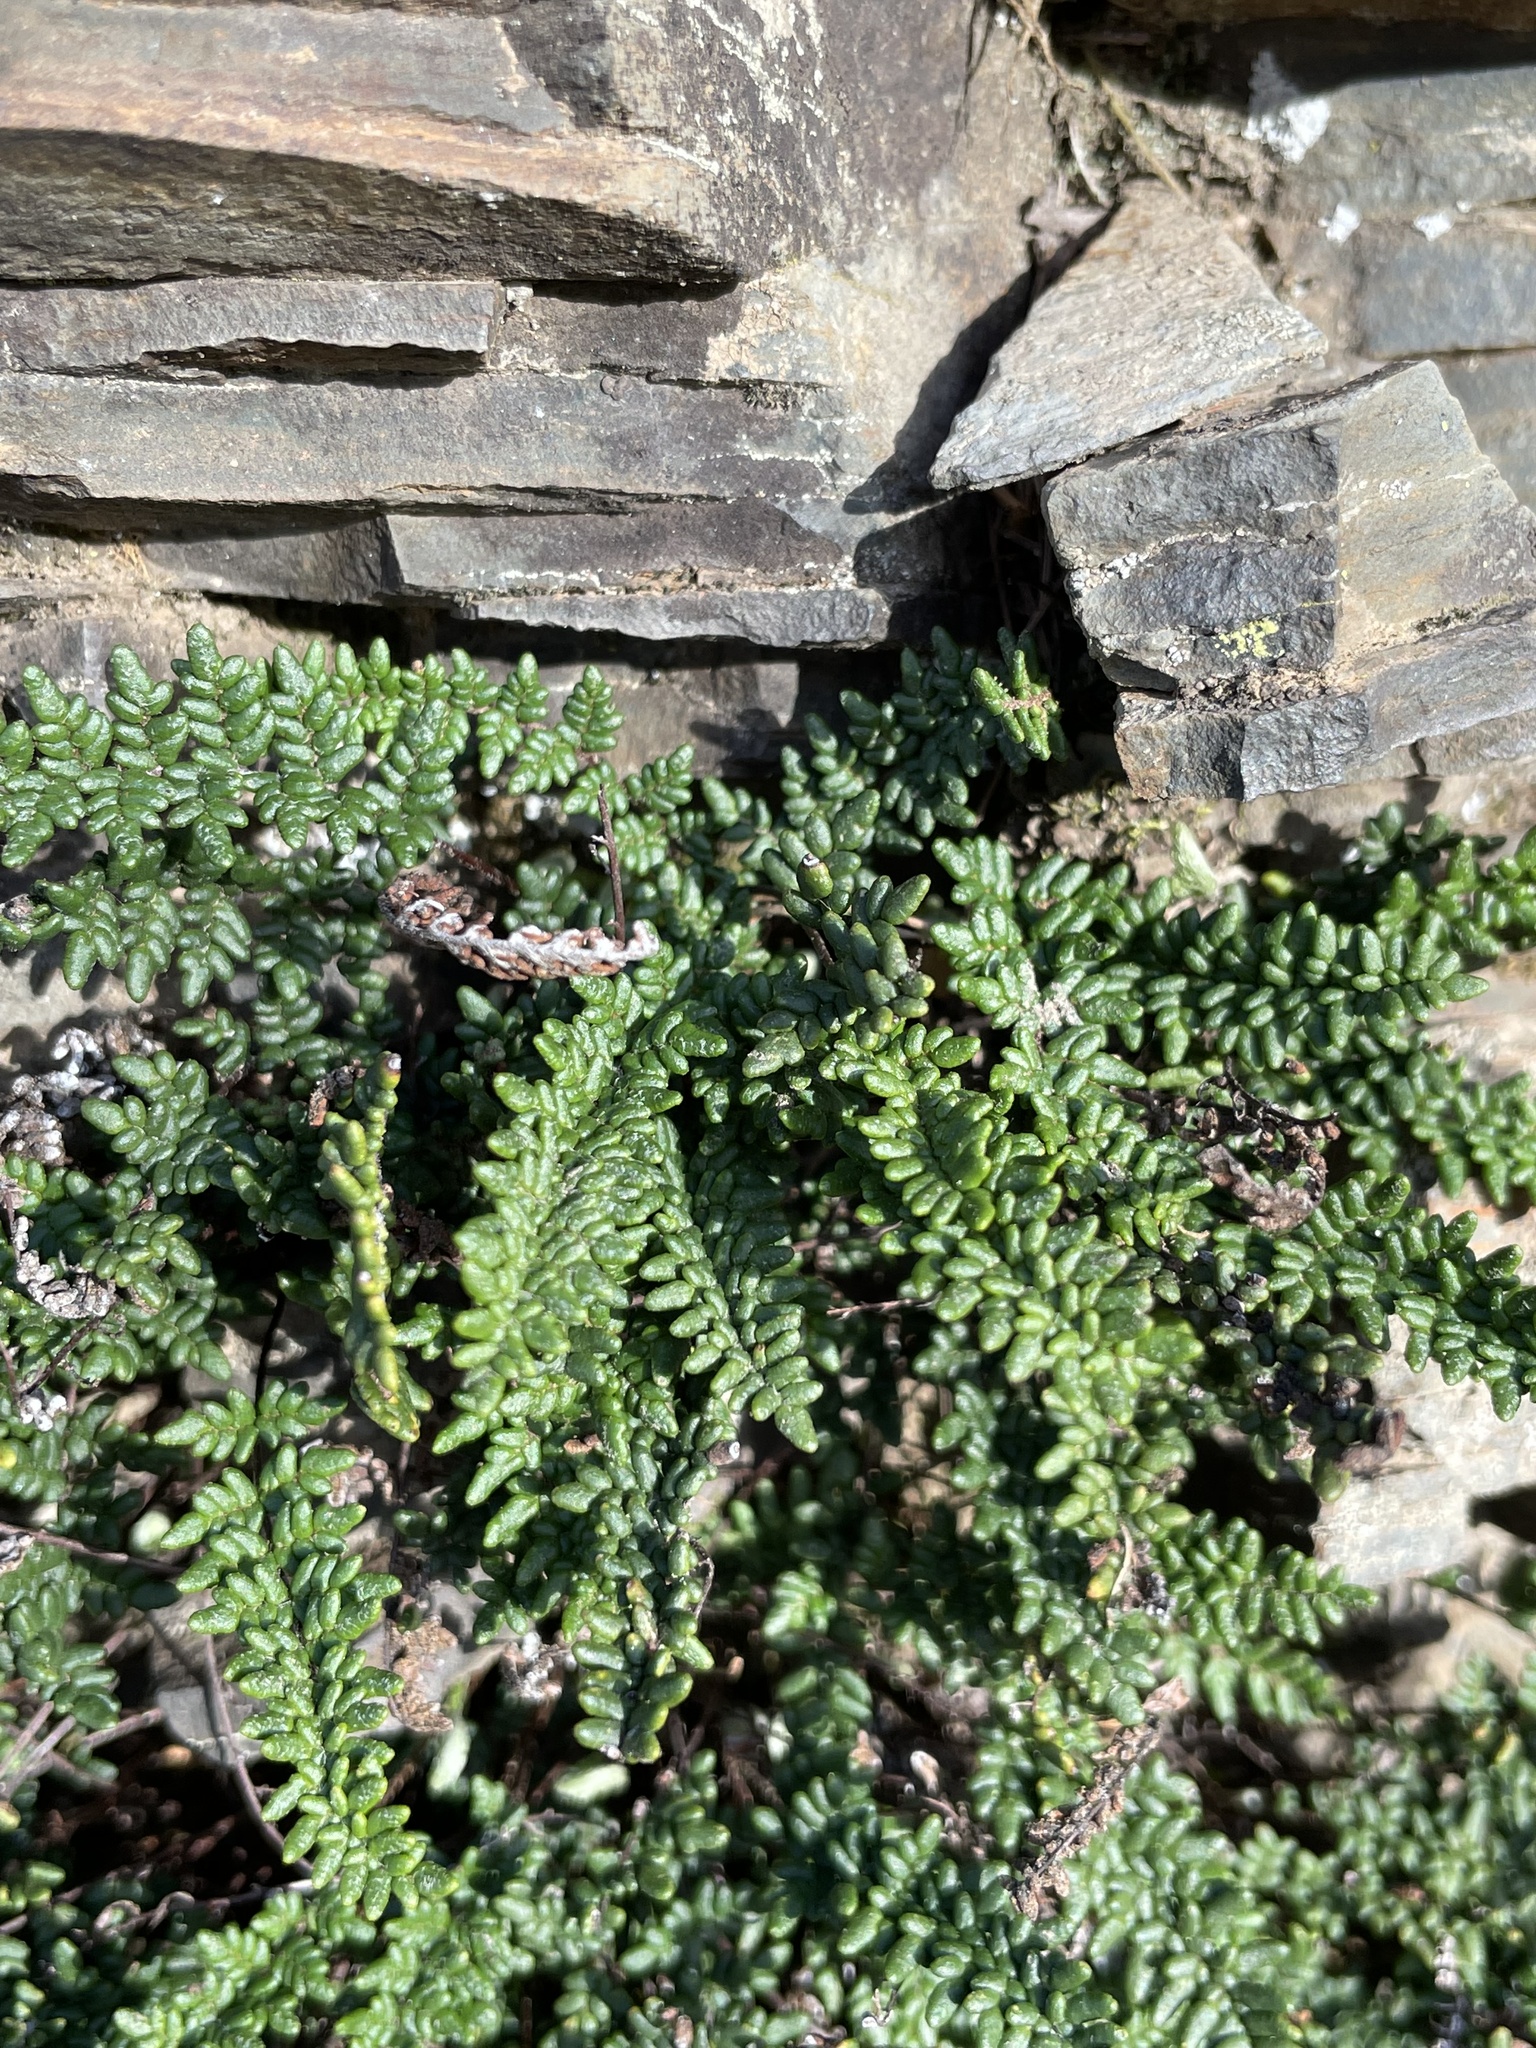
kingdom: Plantae
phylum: Tracheophyta
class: Polypodiopsida
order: Polypodiales
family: Pteridaceae
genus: Myriopteris
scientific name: Myriopteris gracillima
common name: Lace fern
